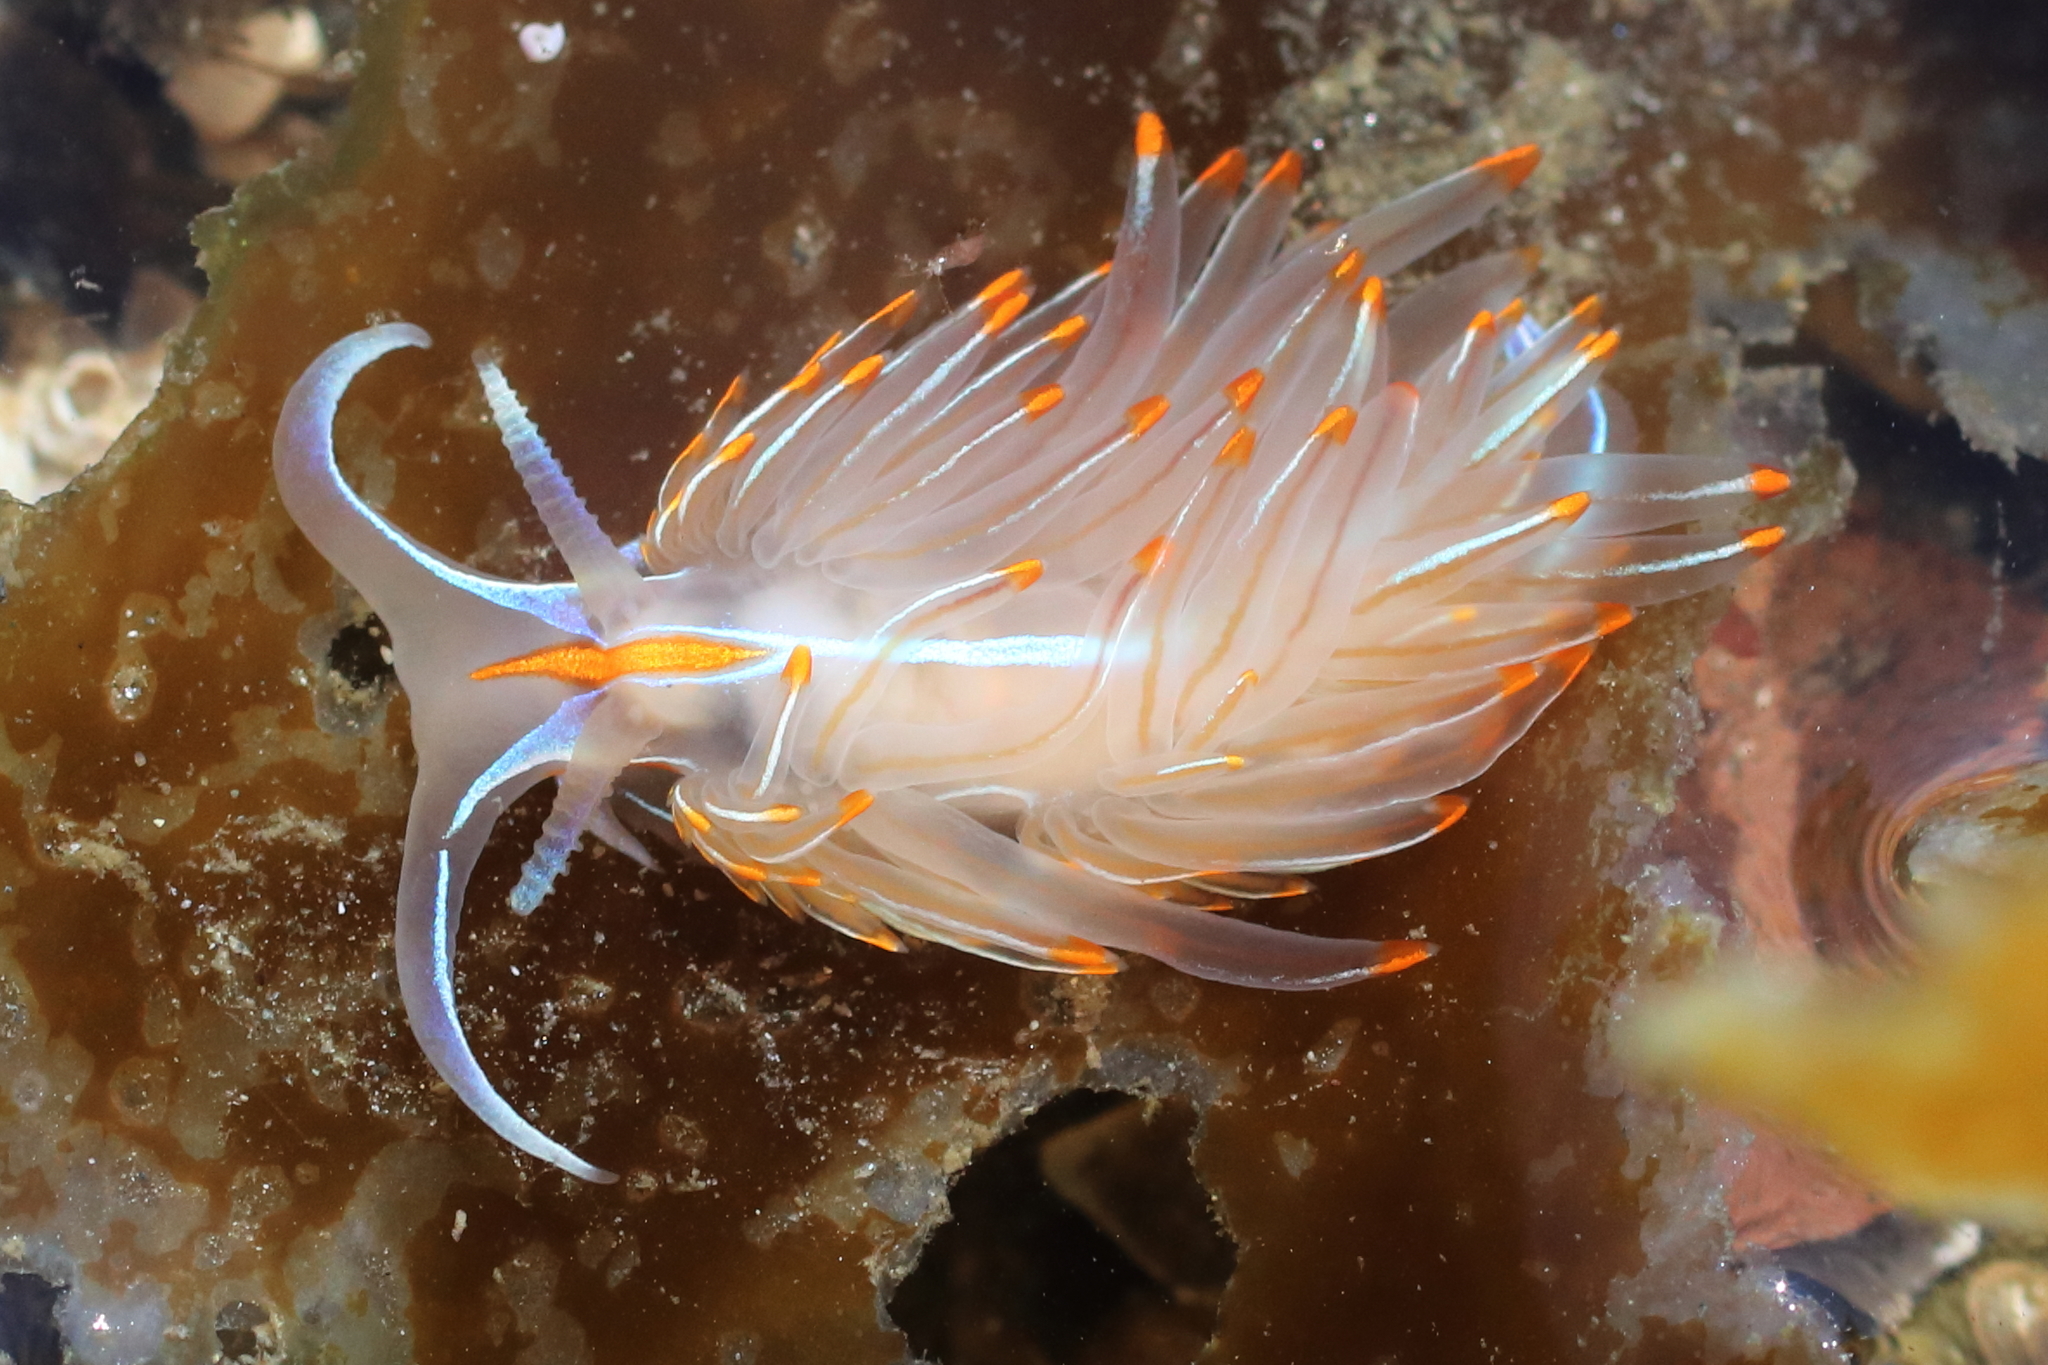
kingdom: Animalia
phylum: Mollusca
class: Gastropoda
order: Nudibranchia
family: Myrrhinidae
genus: Hermissenda
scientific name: Hermissenda crassicornis
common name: Hermissenda
